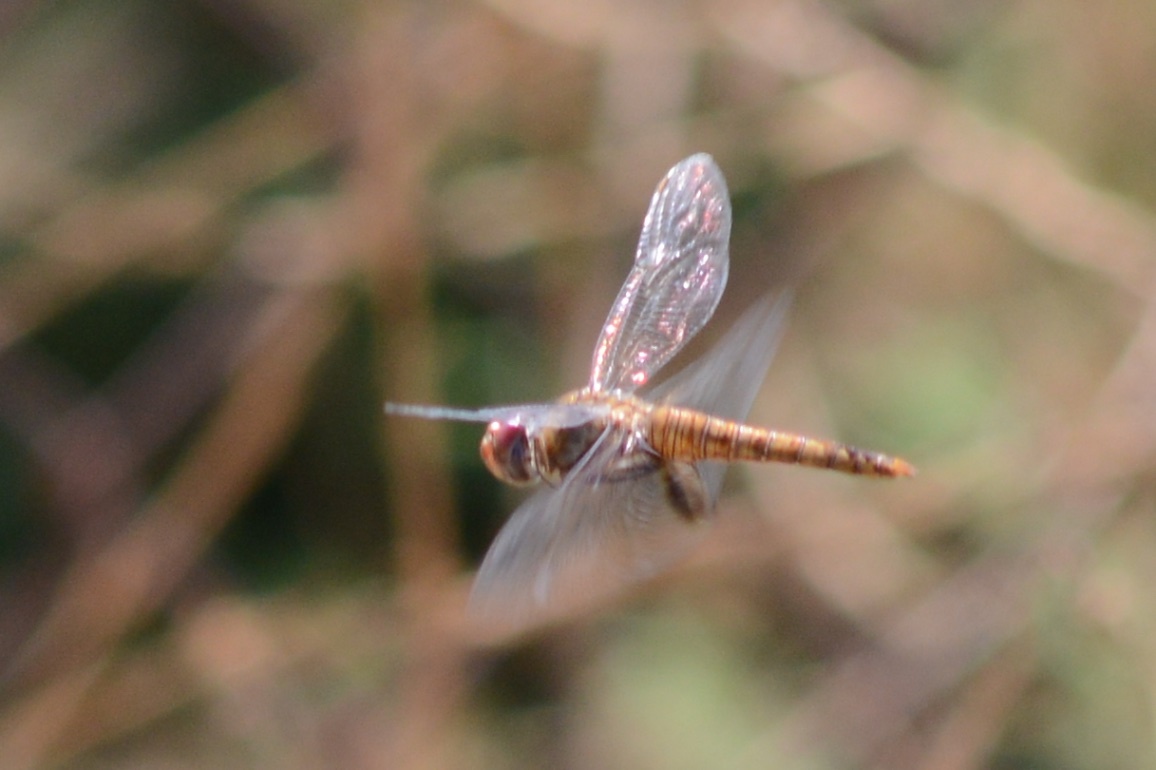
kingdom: Animalia
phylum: Arthropoda
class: Insecta
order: Odonata
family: Libellulidae
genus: Pantala
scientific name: Pantala hymenaea
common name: Spot-winged glider
